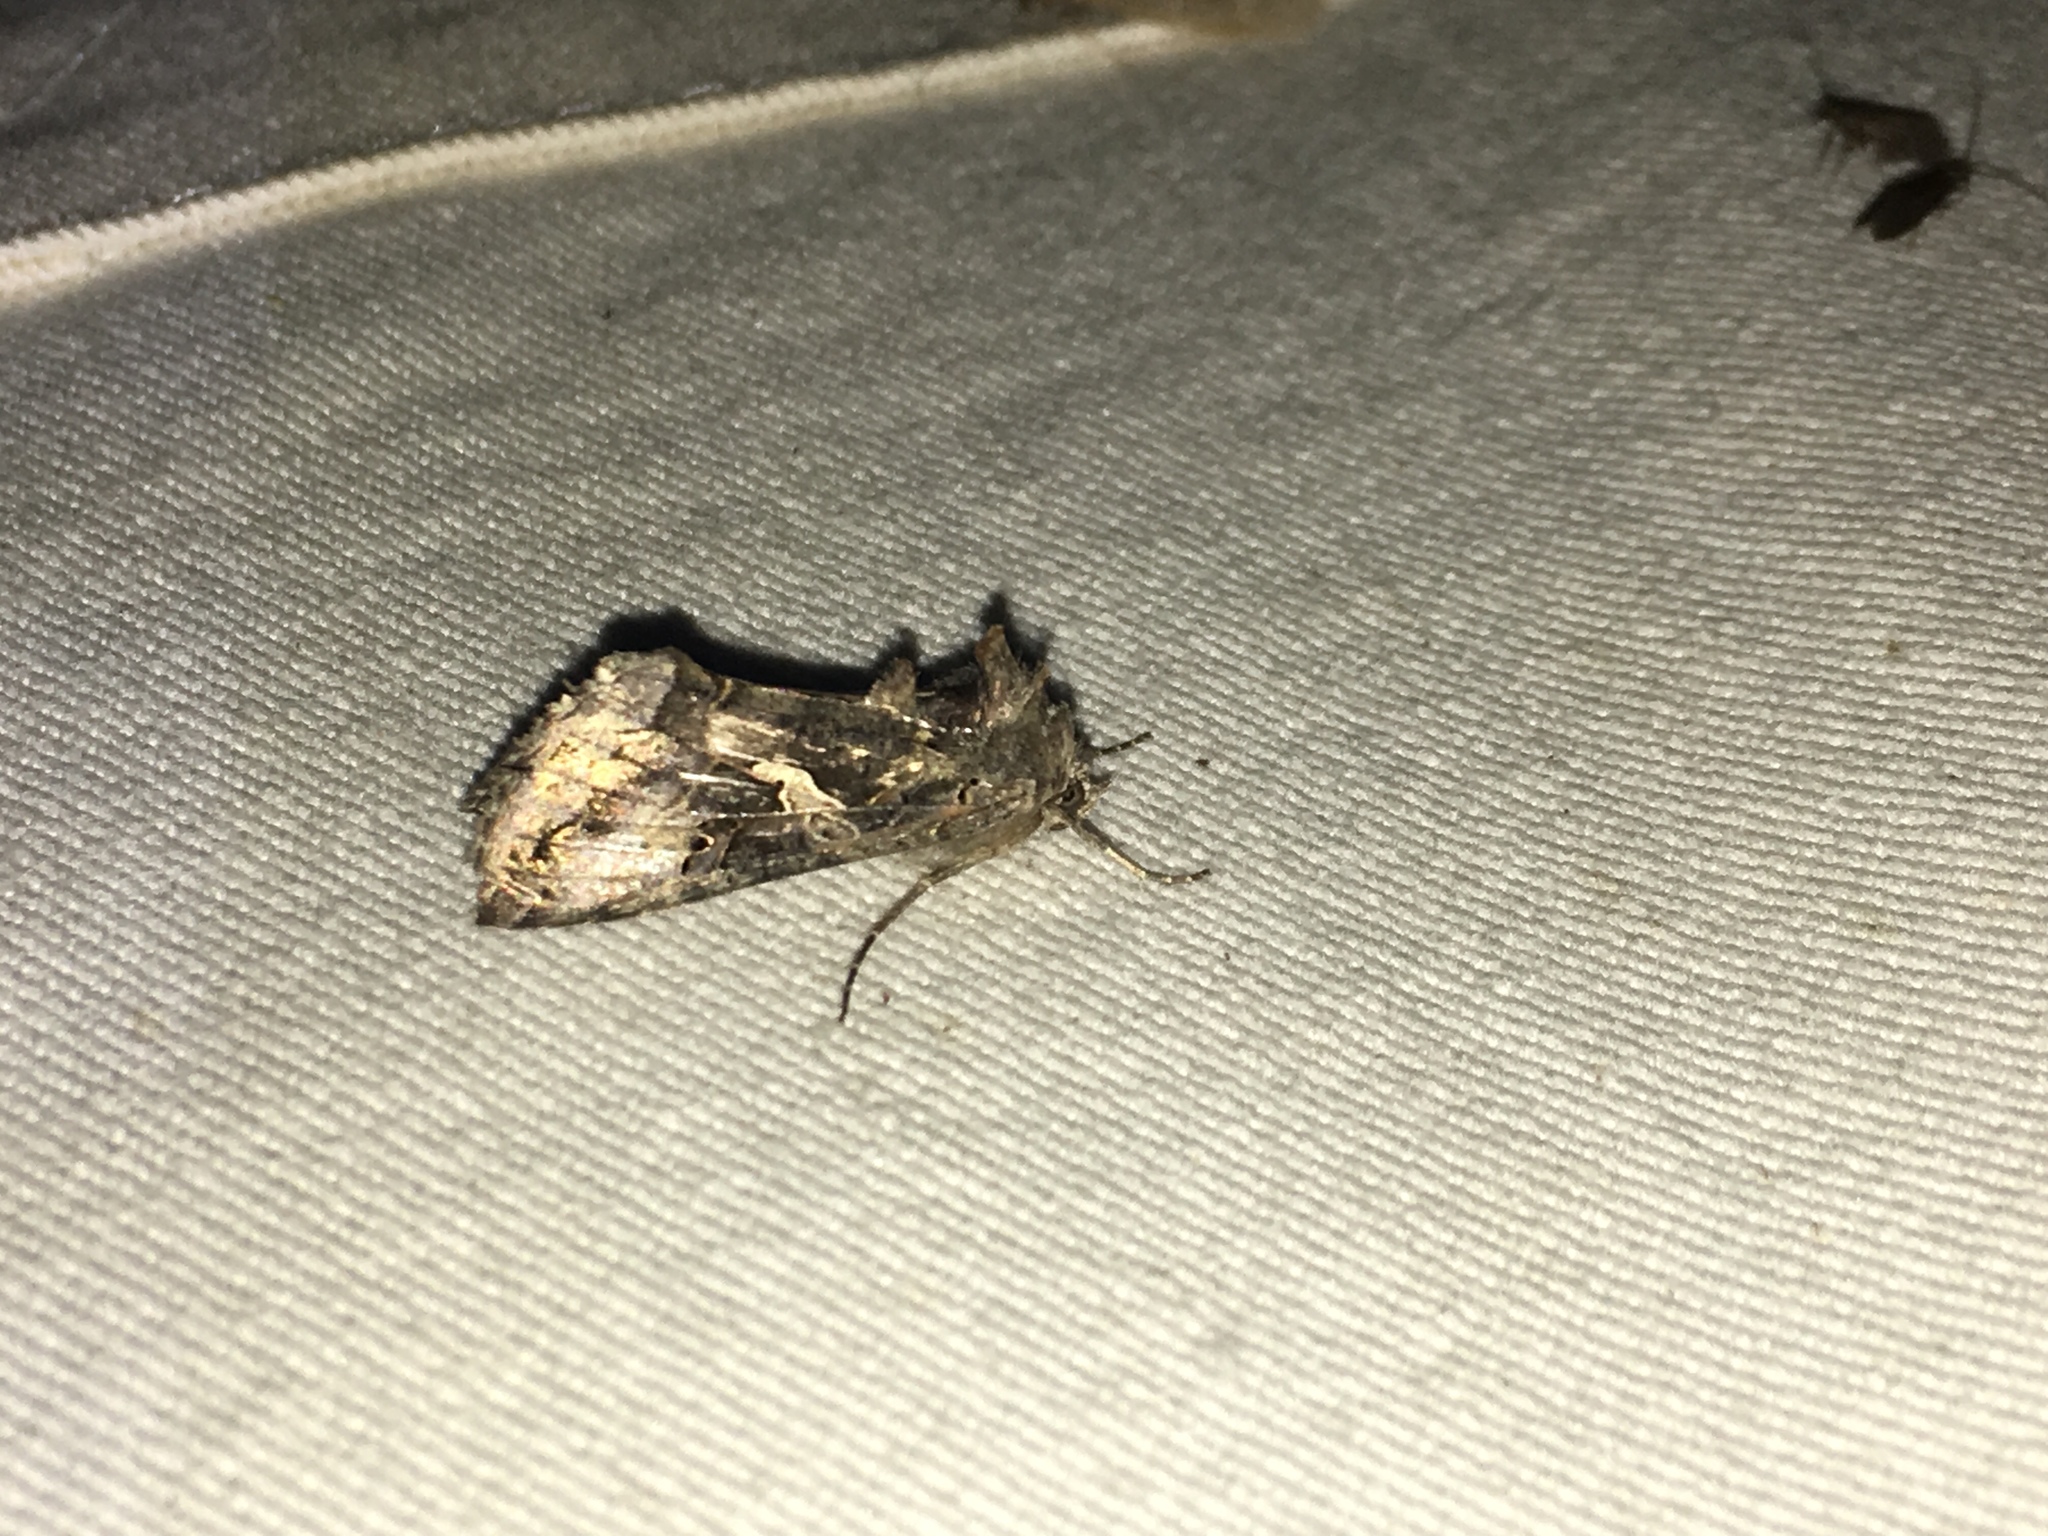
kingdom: Animalia
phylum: Arthropoda
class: Insecta
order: Lepidoptera
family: Noctuidae
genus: Autographa
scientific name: Autographa gamma
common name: Silver y
